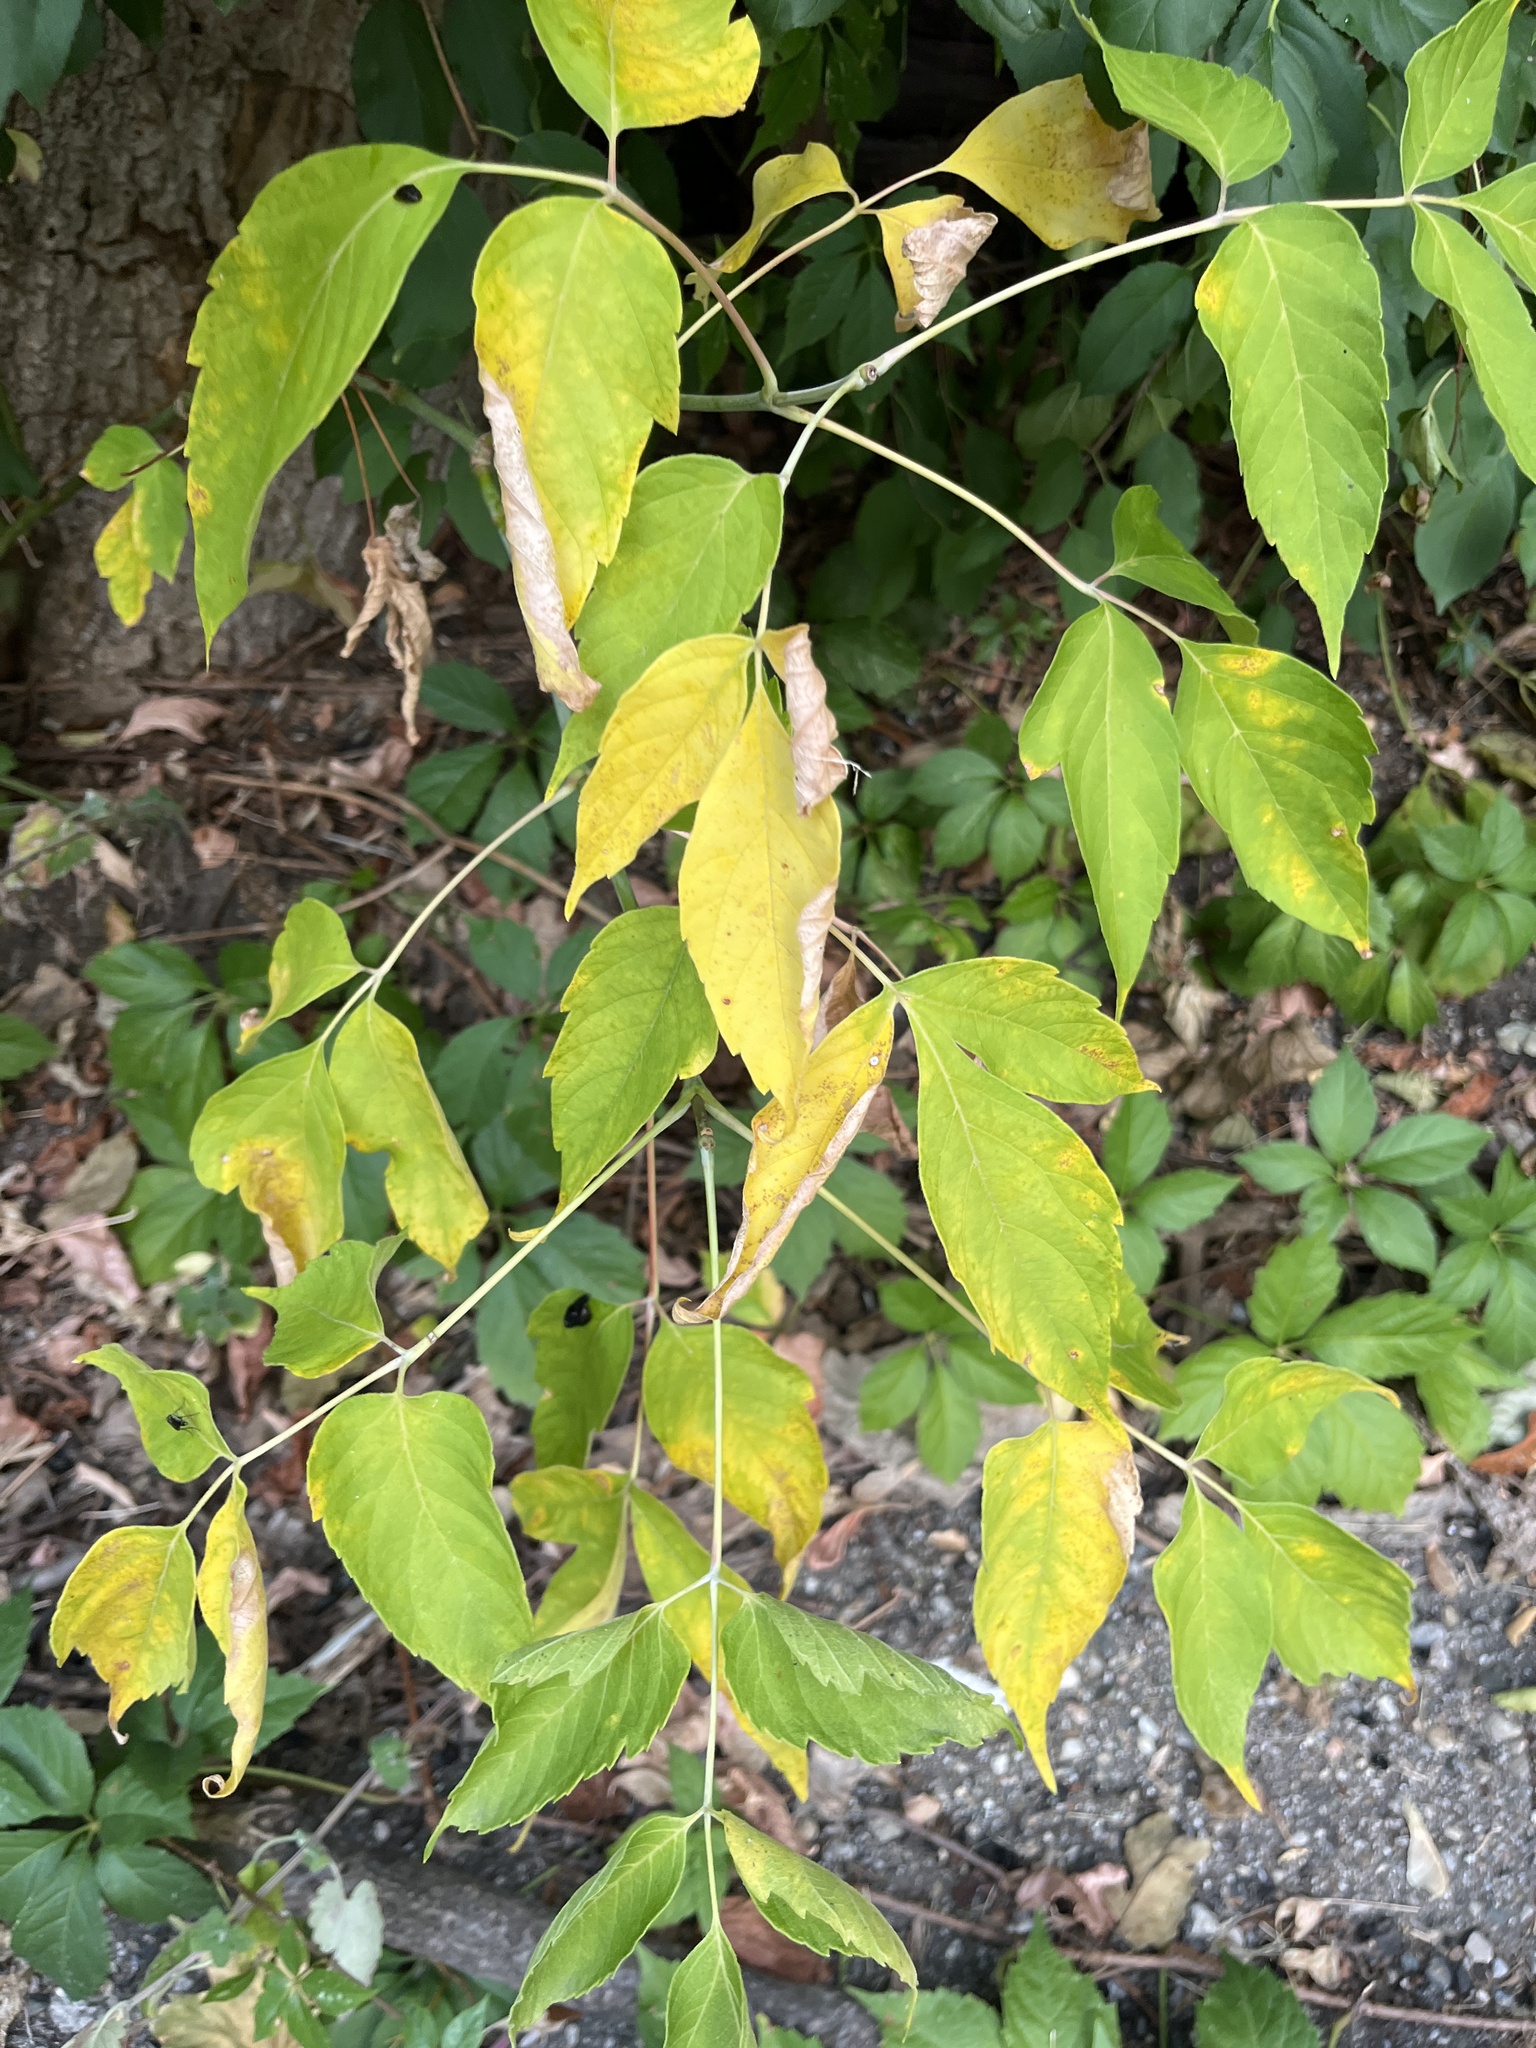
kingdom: Plantae
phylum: Tracheophyta
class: Magnoliopsida
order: Sapindales
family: Sapindaceae
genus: Acer
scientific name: Acer negundo
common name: Ashleaf maple
